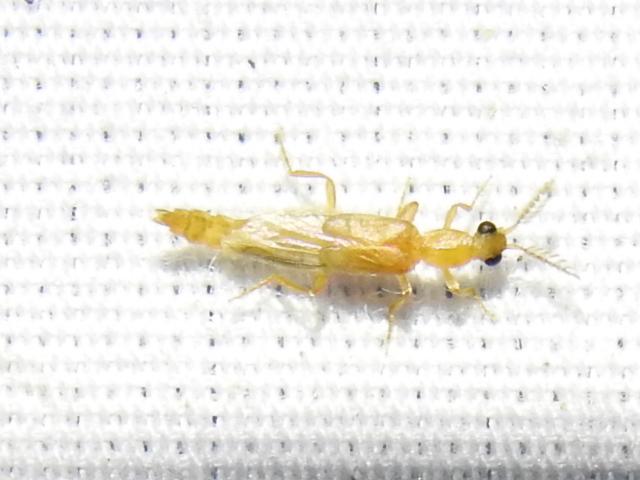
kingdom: Animalia
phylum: Arthropoda
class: Insecta
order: Coleoptera
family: Phengodidae
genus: Cenophengus
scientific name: Cenophengus pallidus
